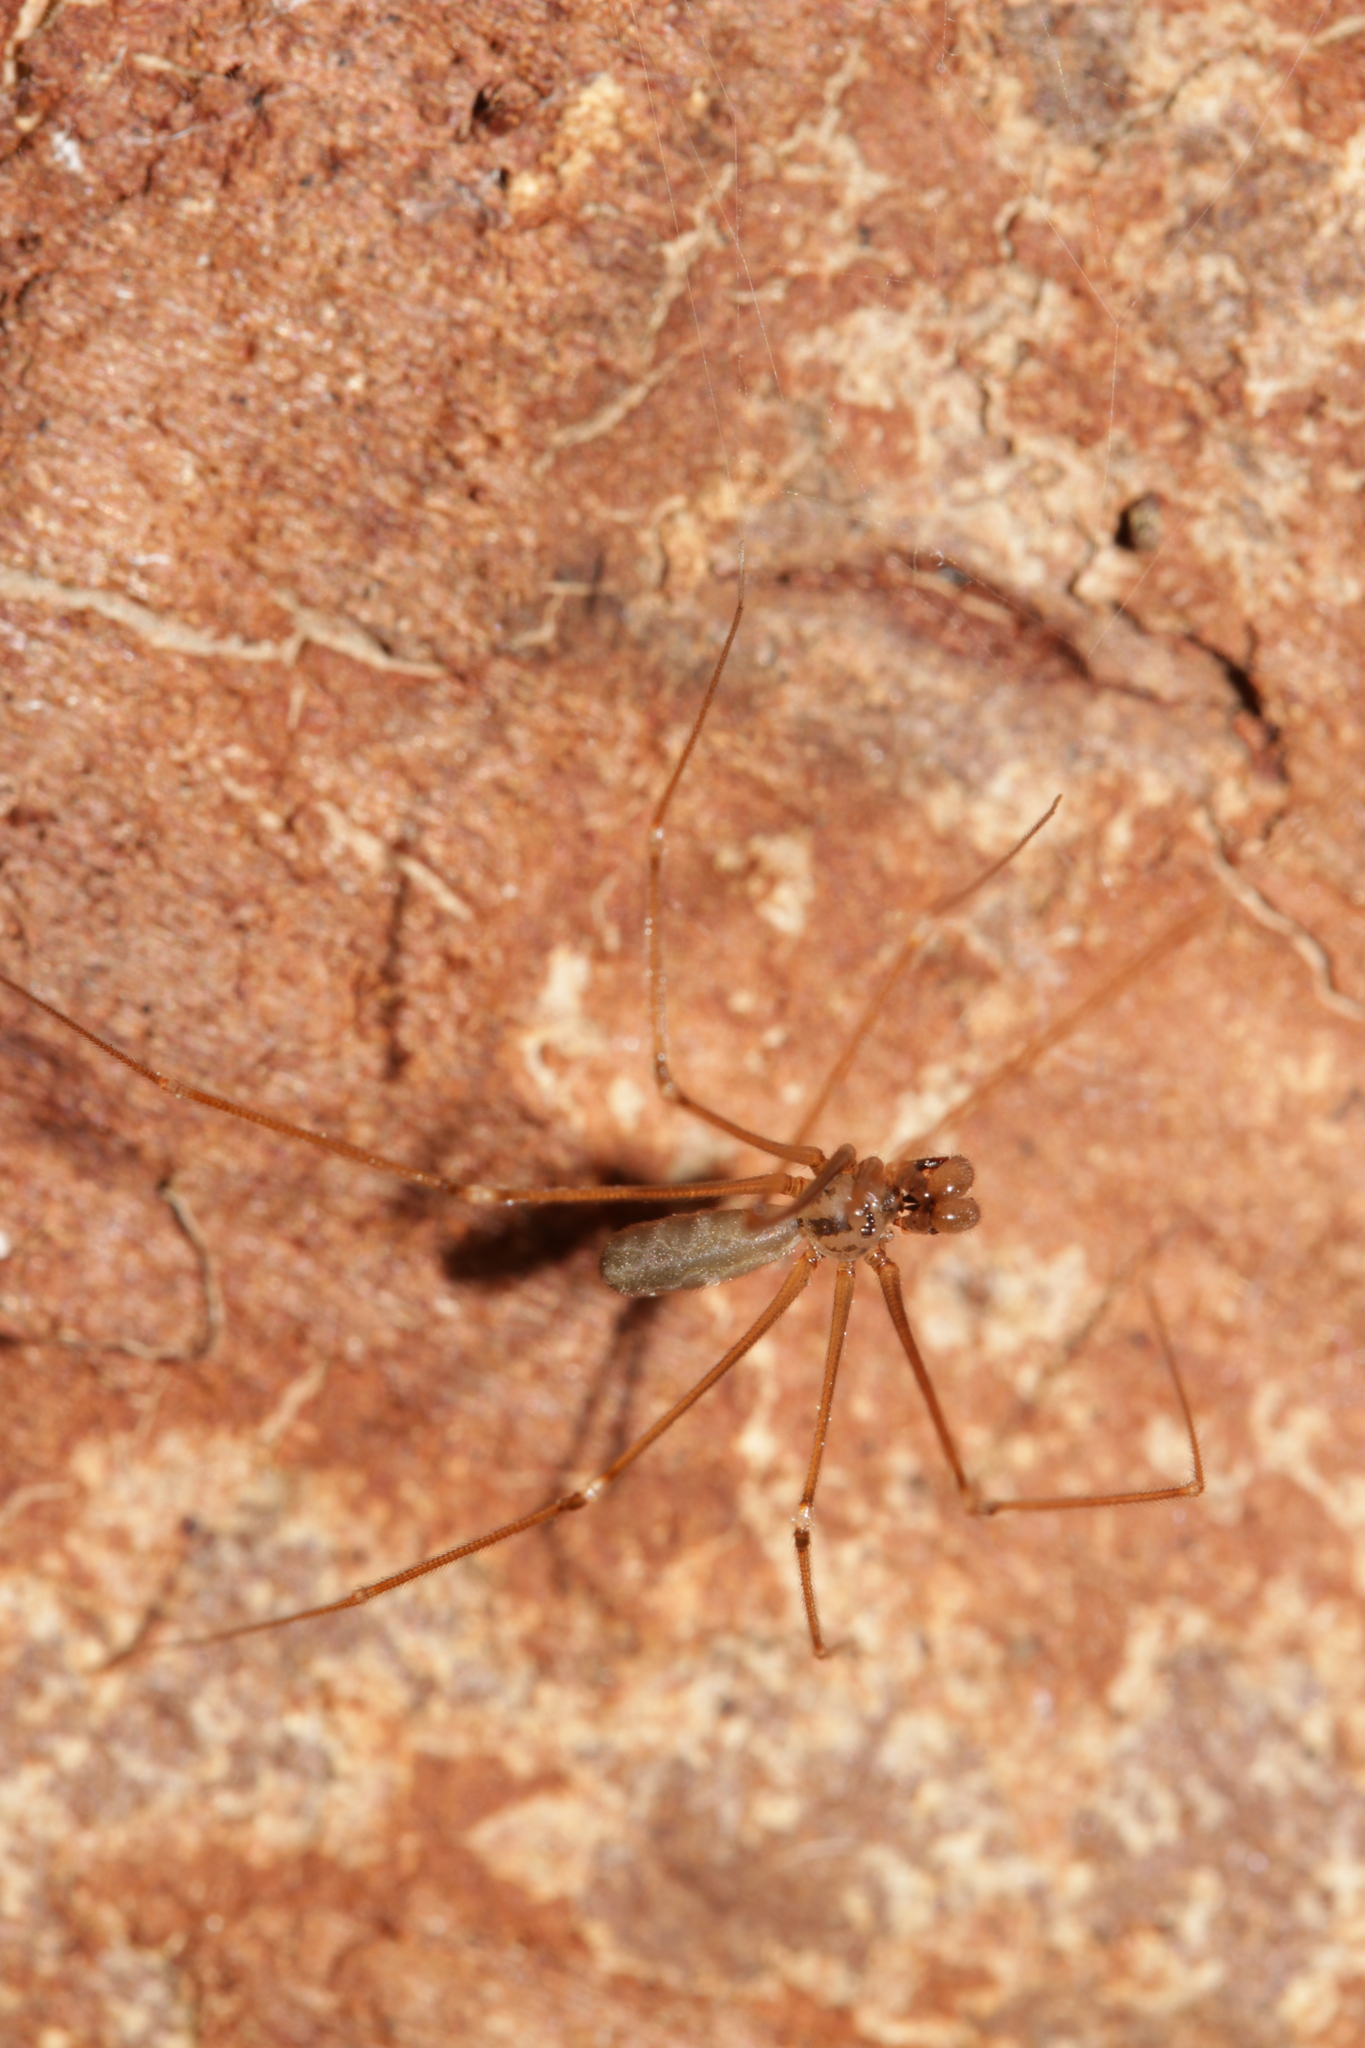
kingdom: Animalia
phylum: Arthropoda
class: Arachnida
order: Araneae
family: Pholcidae
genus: Pholcus
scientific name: Pholcus opilionoides
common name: Daddylongleg spider
